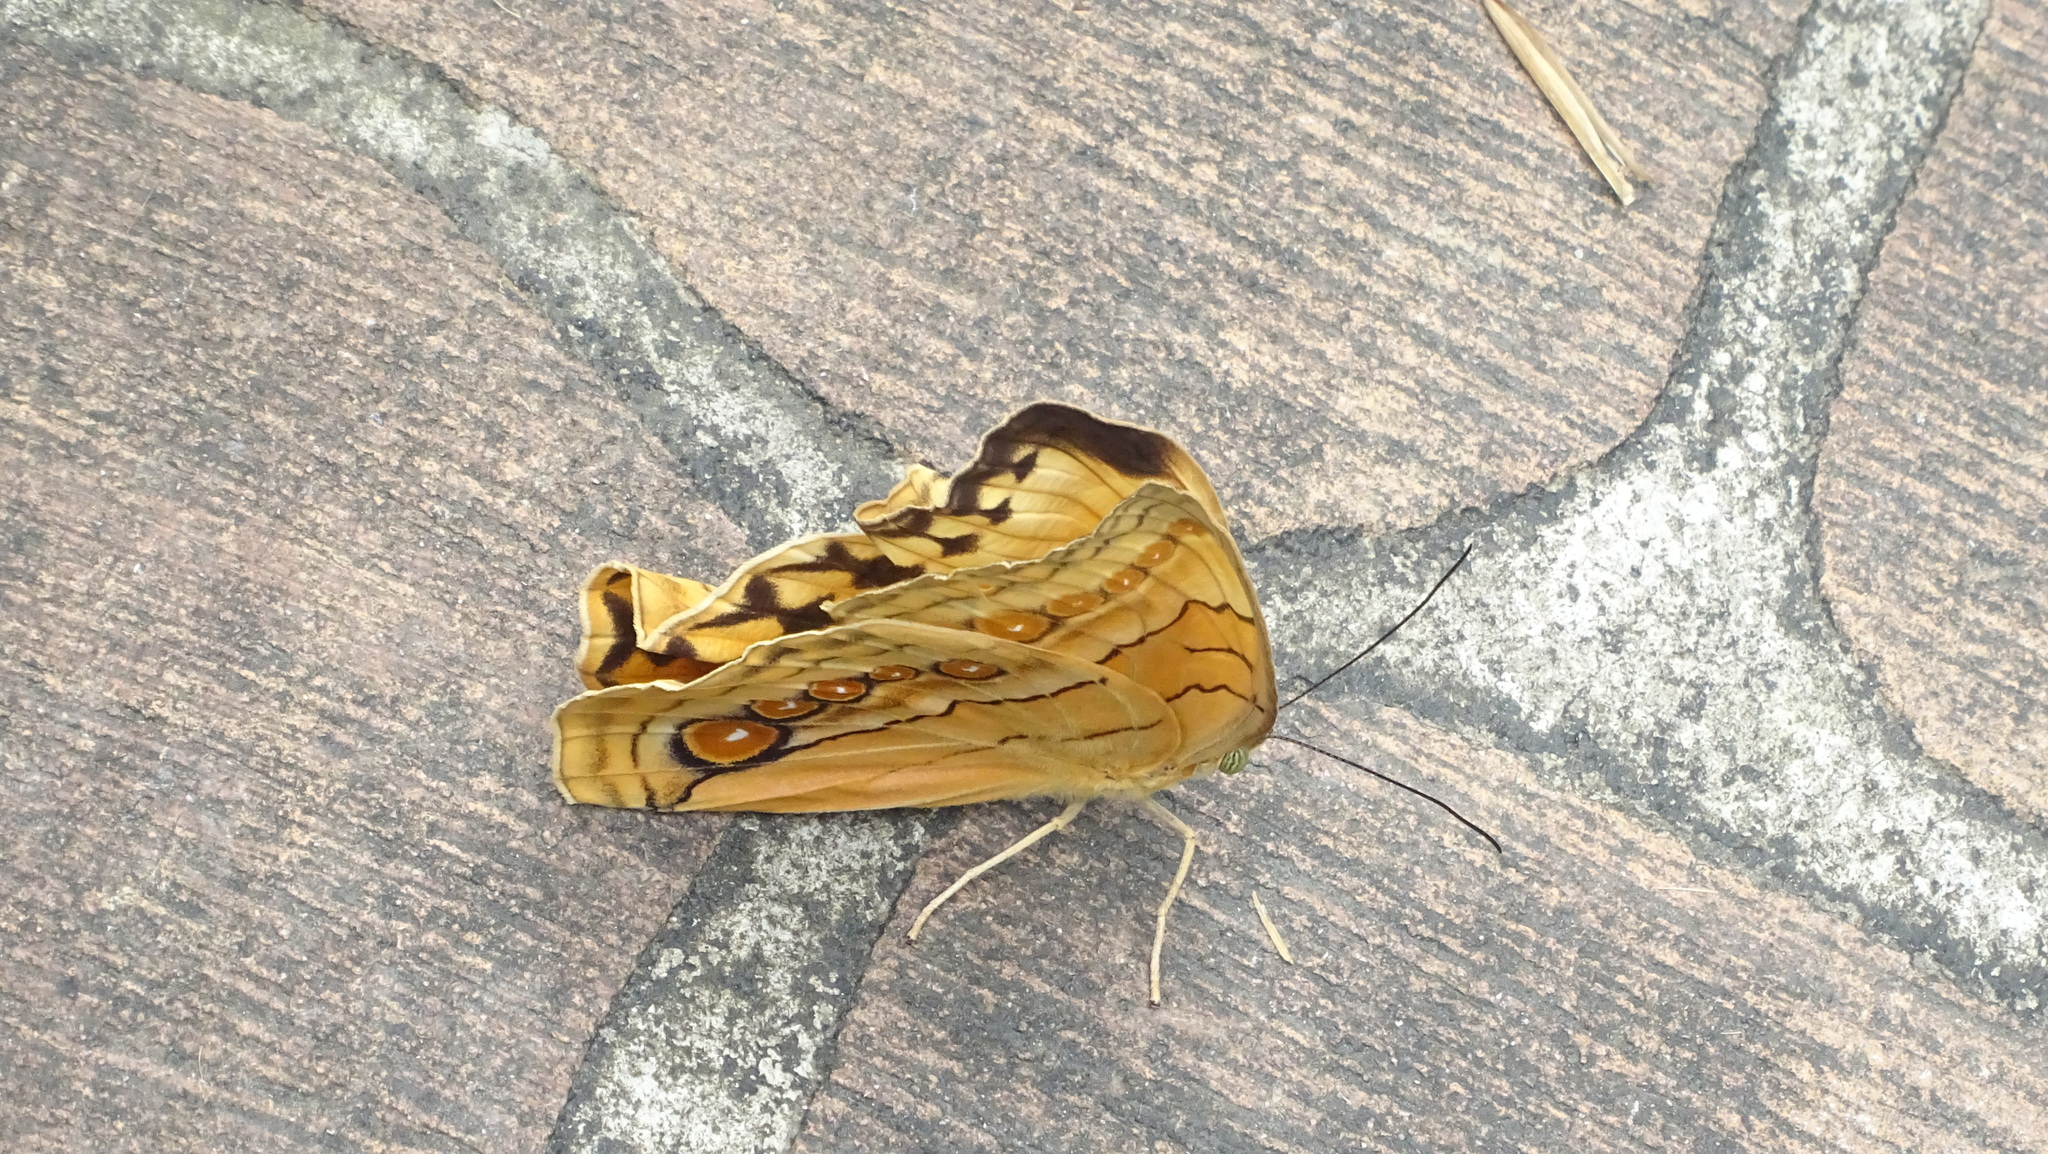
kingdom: Animalia
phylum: Arthropoda
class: Insecta
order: Lepidoptera
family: Nymphalidae
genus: Stichophthalma
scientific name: Stichophthalma howqua
